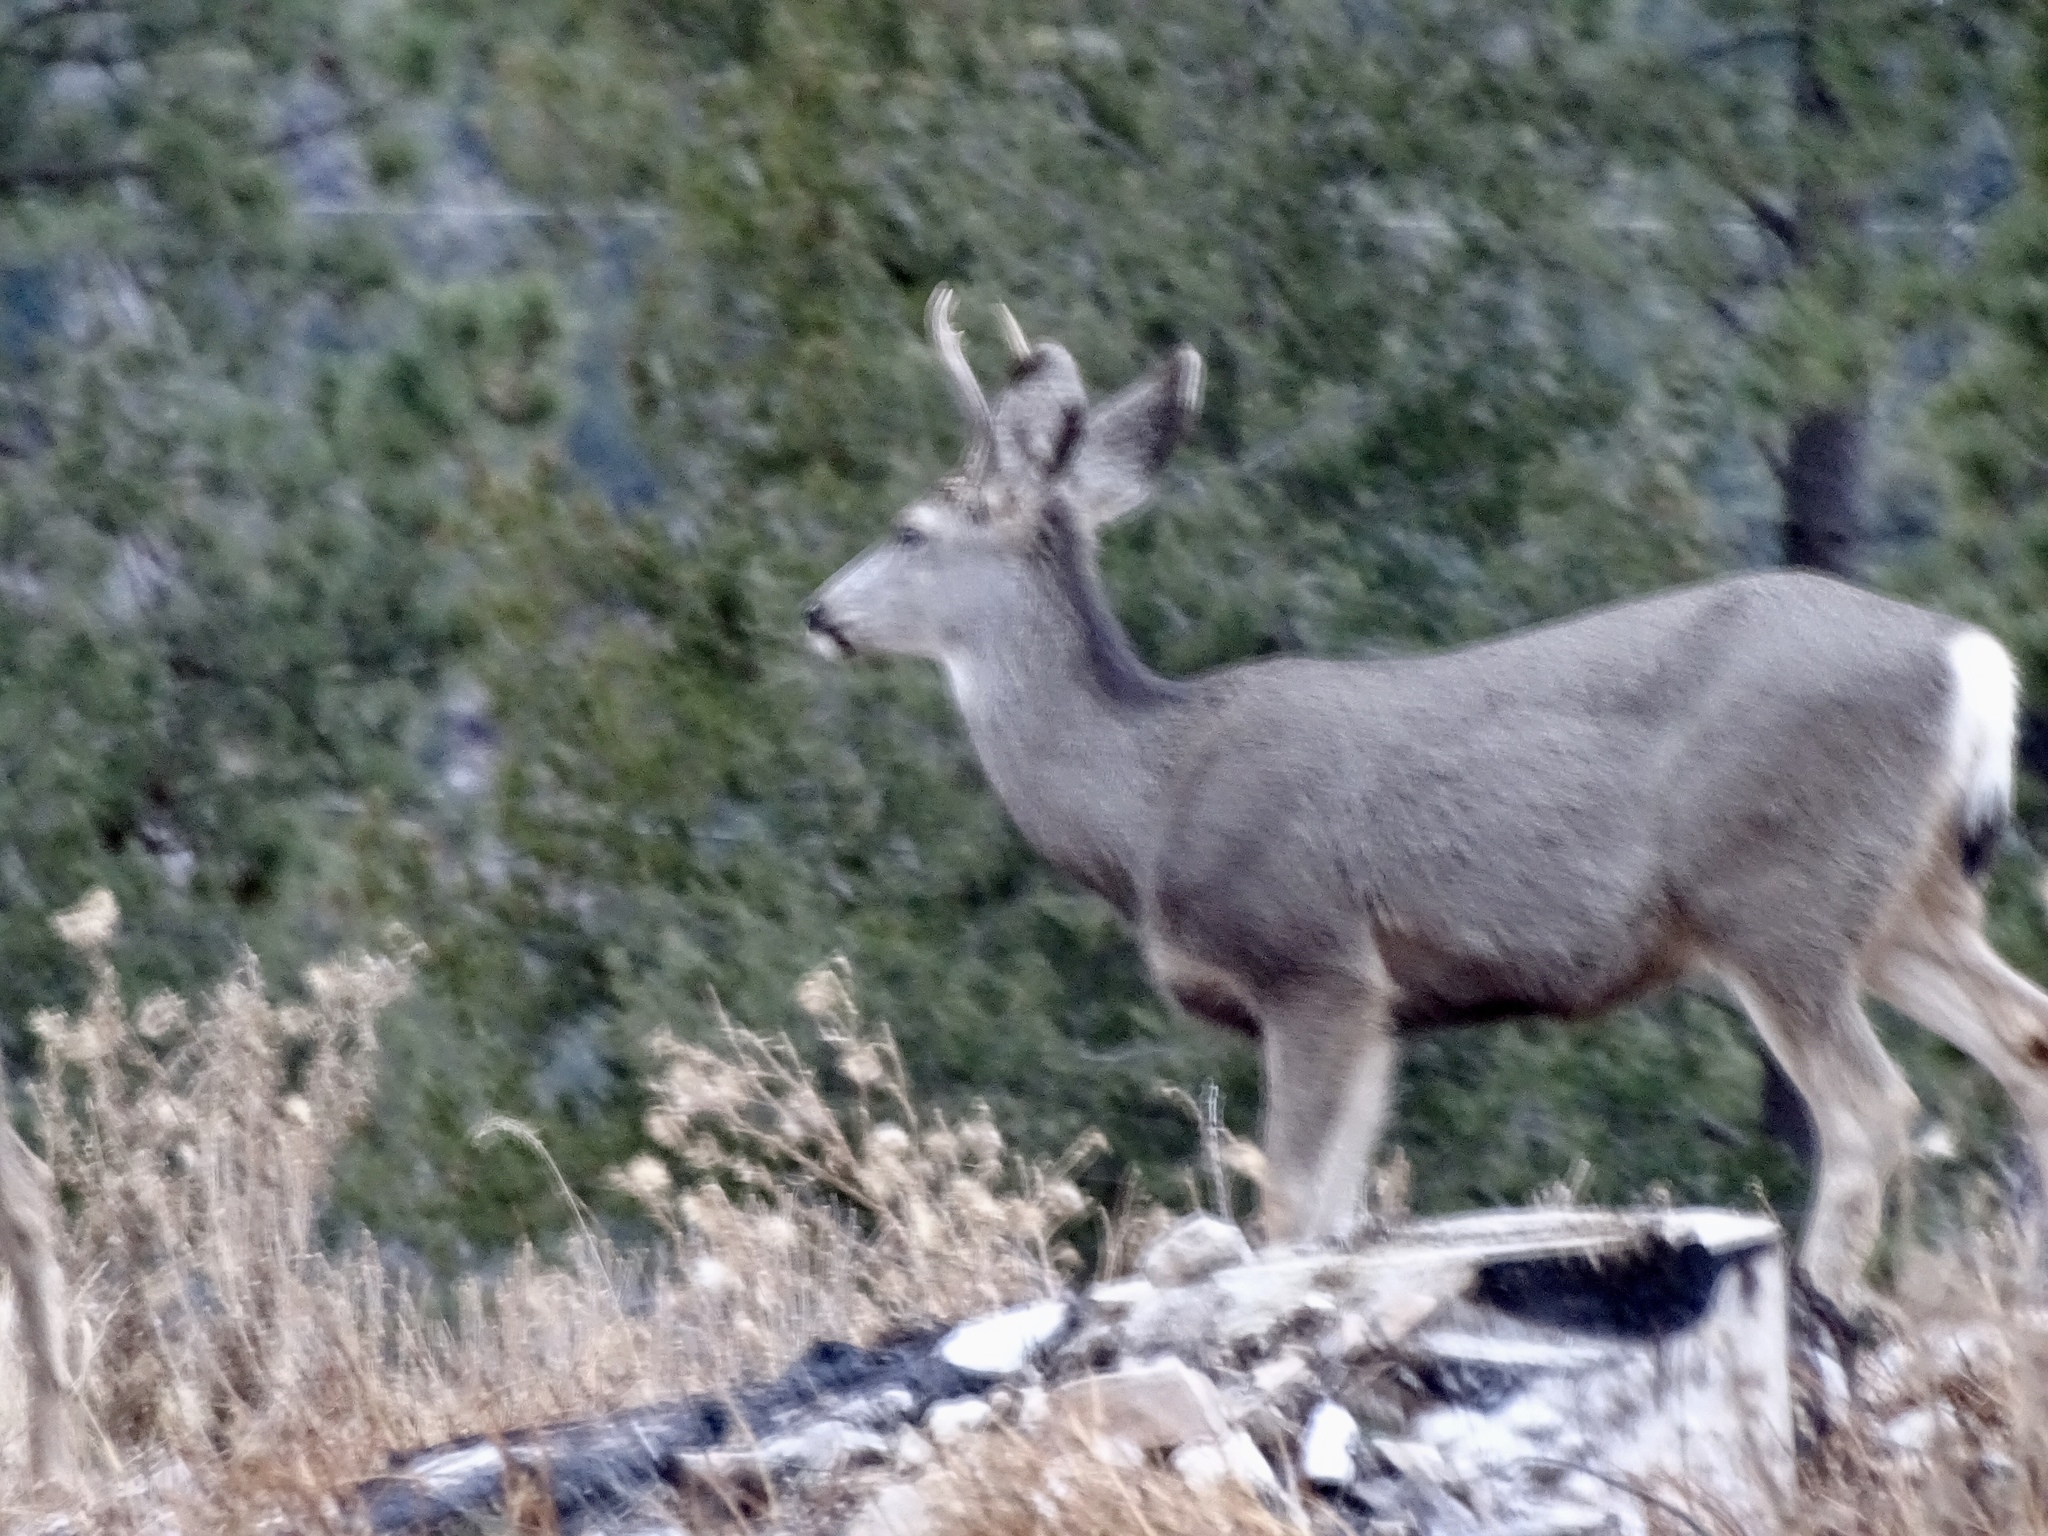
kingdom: Animalia
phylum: Chordata
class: Mammalia
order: Artiodactyla
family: Cervidae
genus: Odocoileus
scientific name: Odocoileus hemionus
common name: Mule deer
